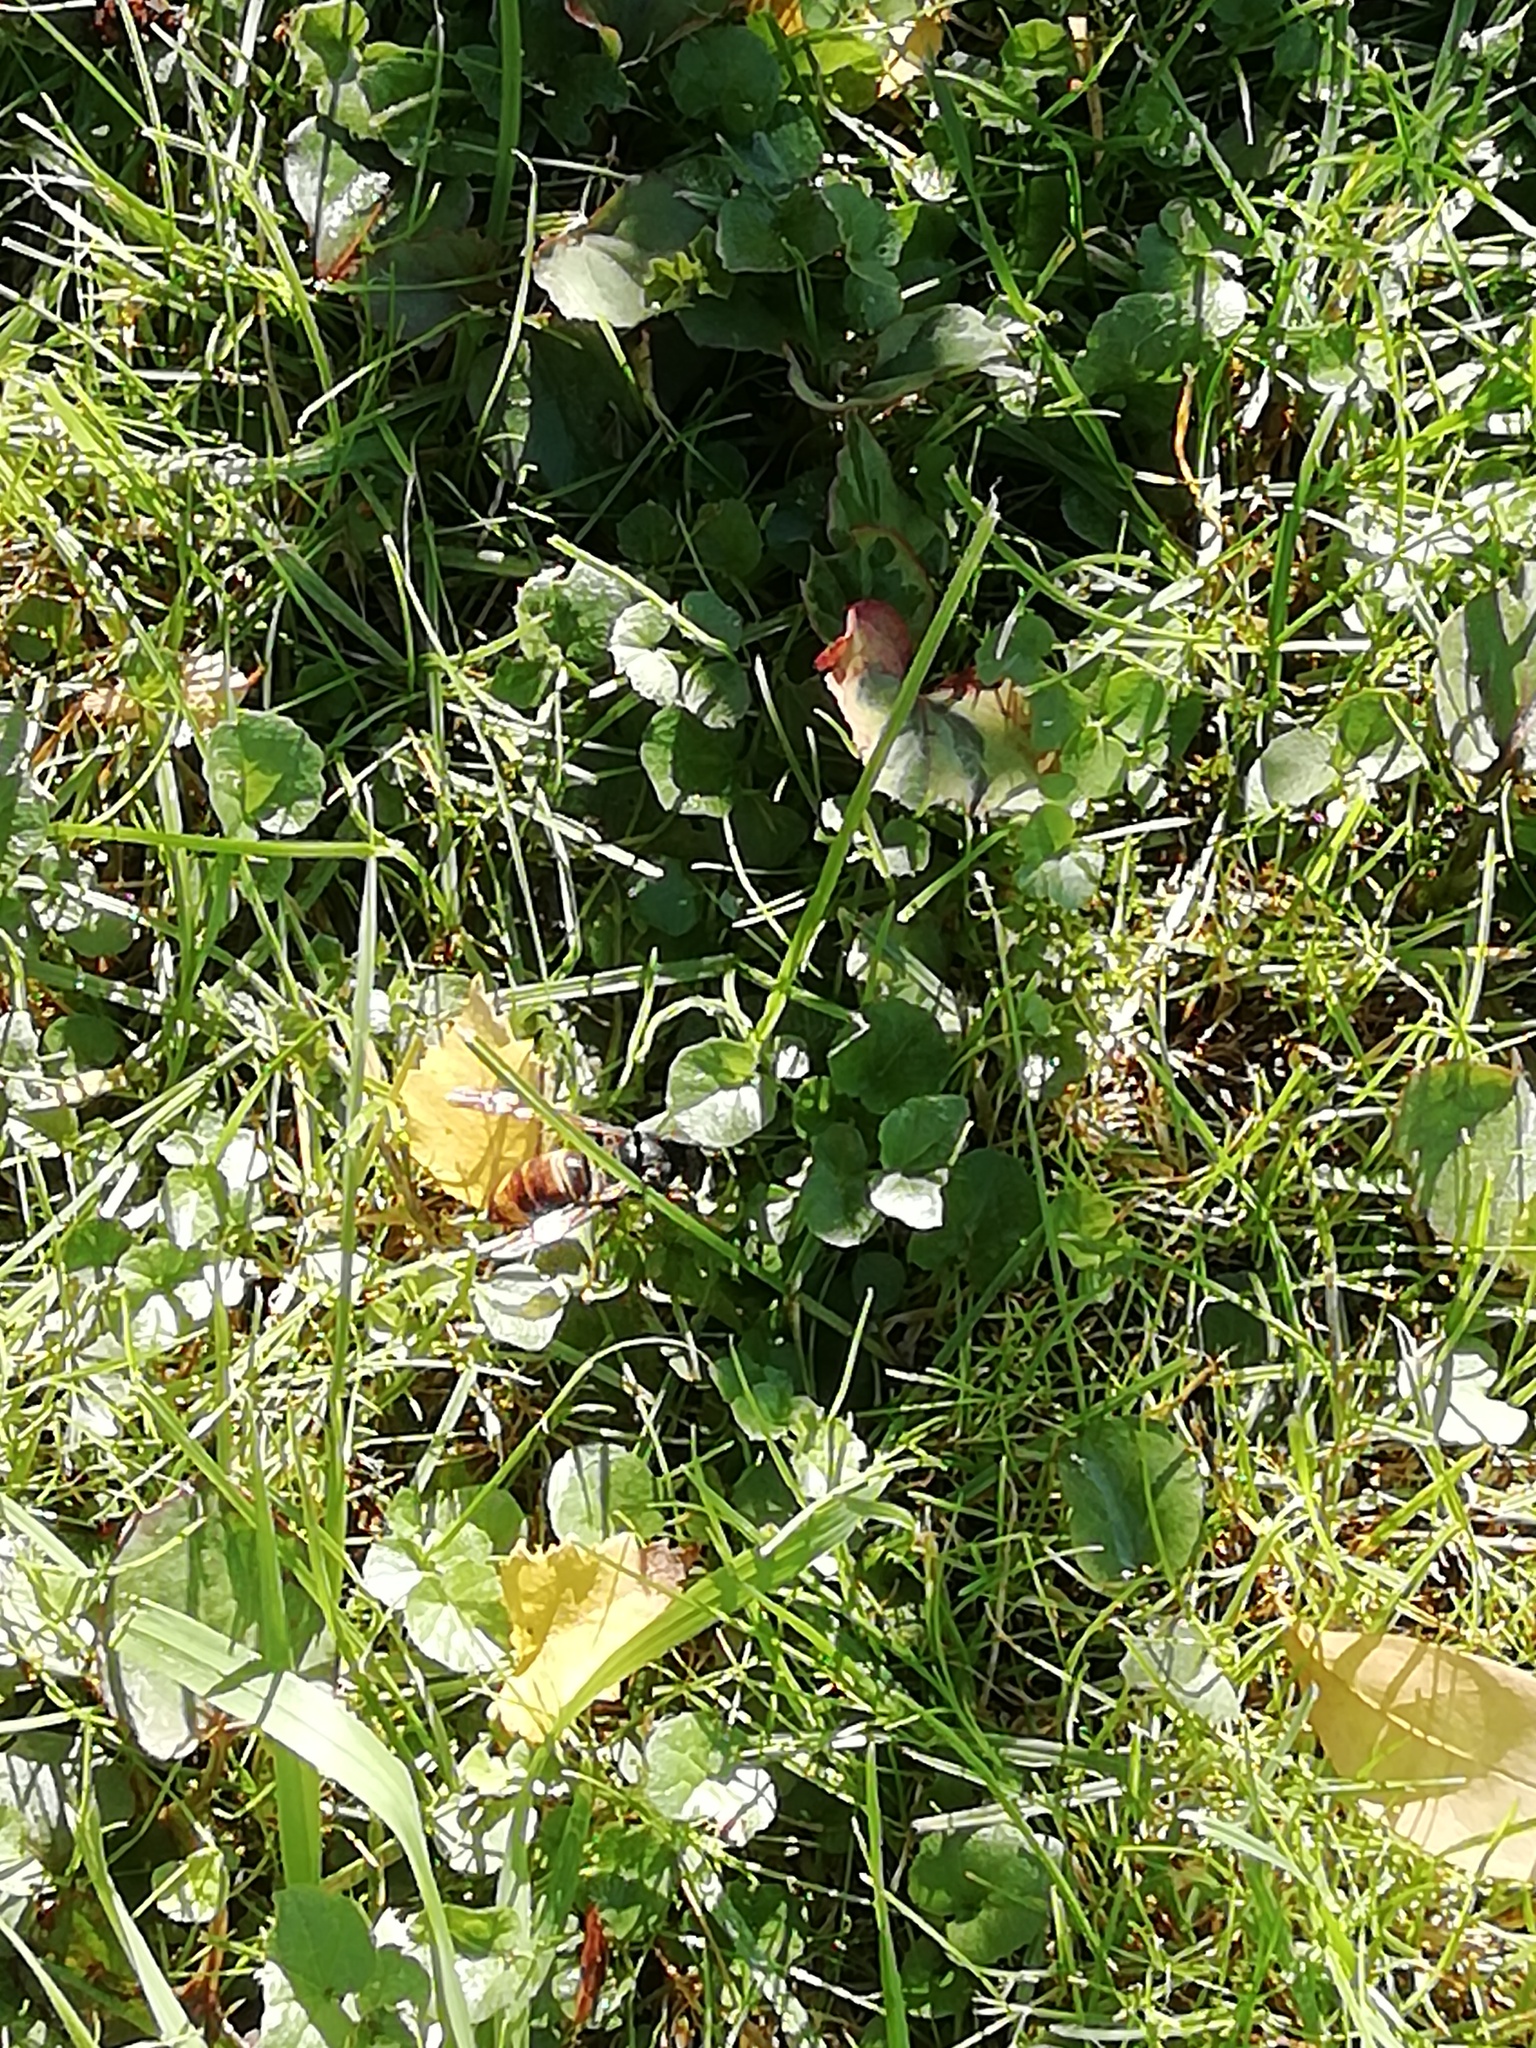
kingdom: Animalia
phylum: Arthropoda
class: Insecta
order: Hymenoptera
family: Vespidae
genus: Vespa
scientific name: Vespa velutina
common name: Asian hornet
